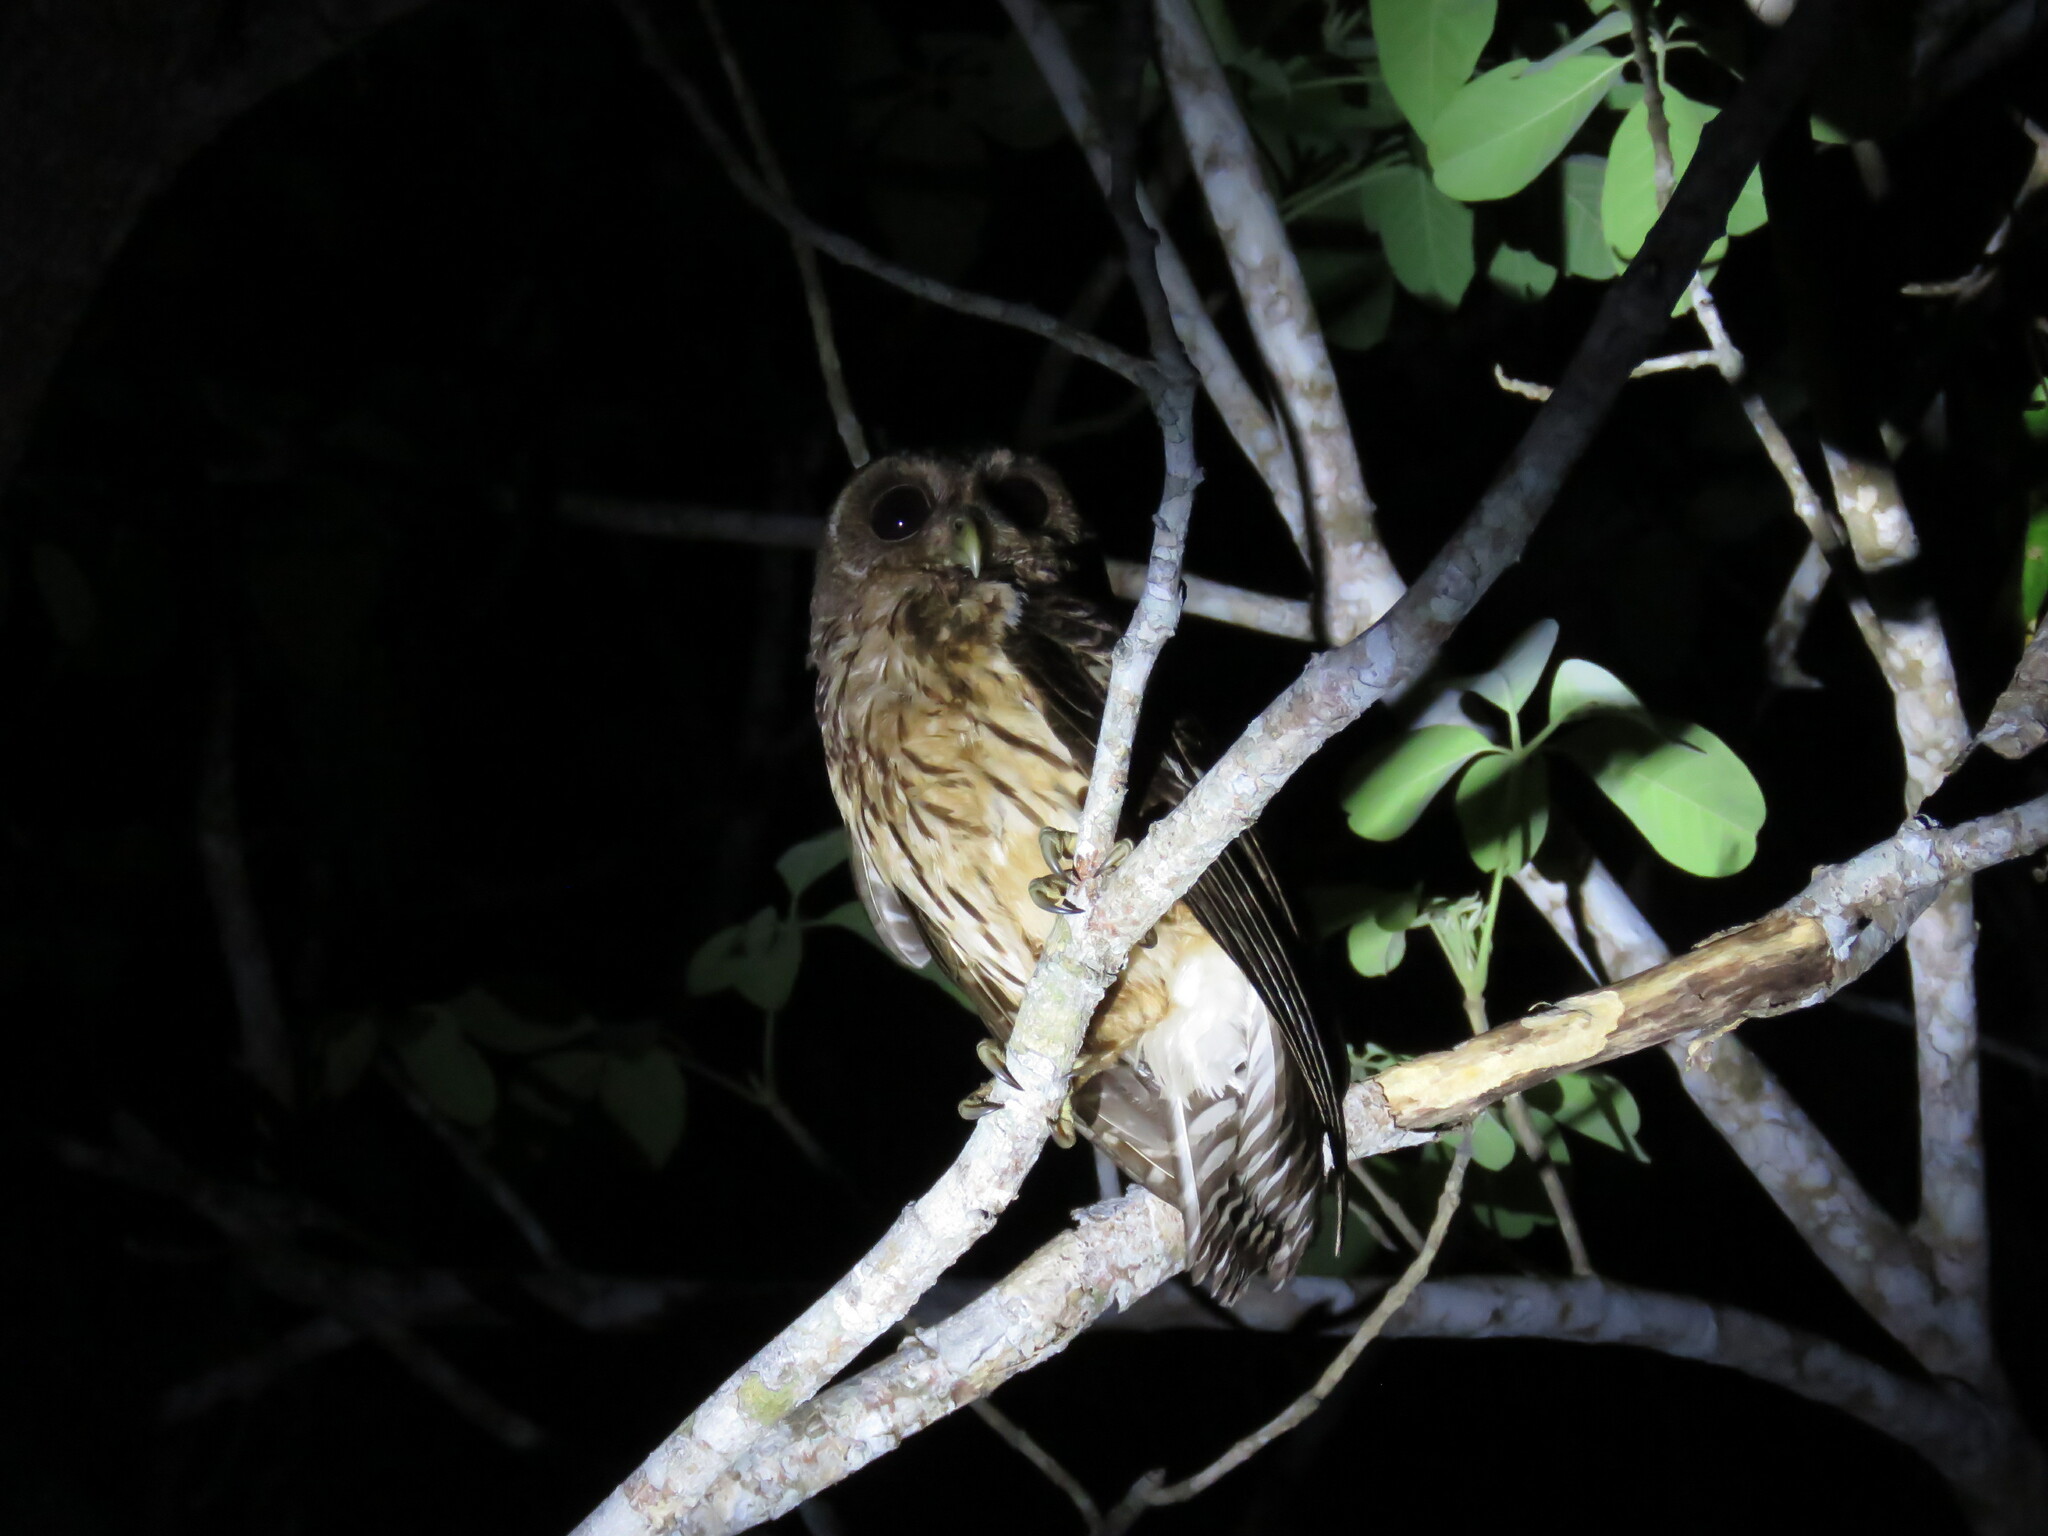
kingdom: Animalia
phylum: Chordata
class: Aves
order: Strigiformes
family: Strigidae
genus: Strix
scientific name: Strix virgata
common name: Mottled owl
